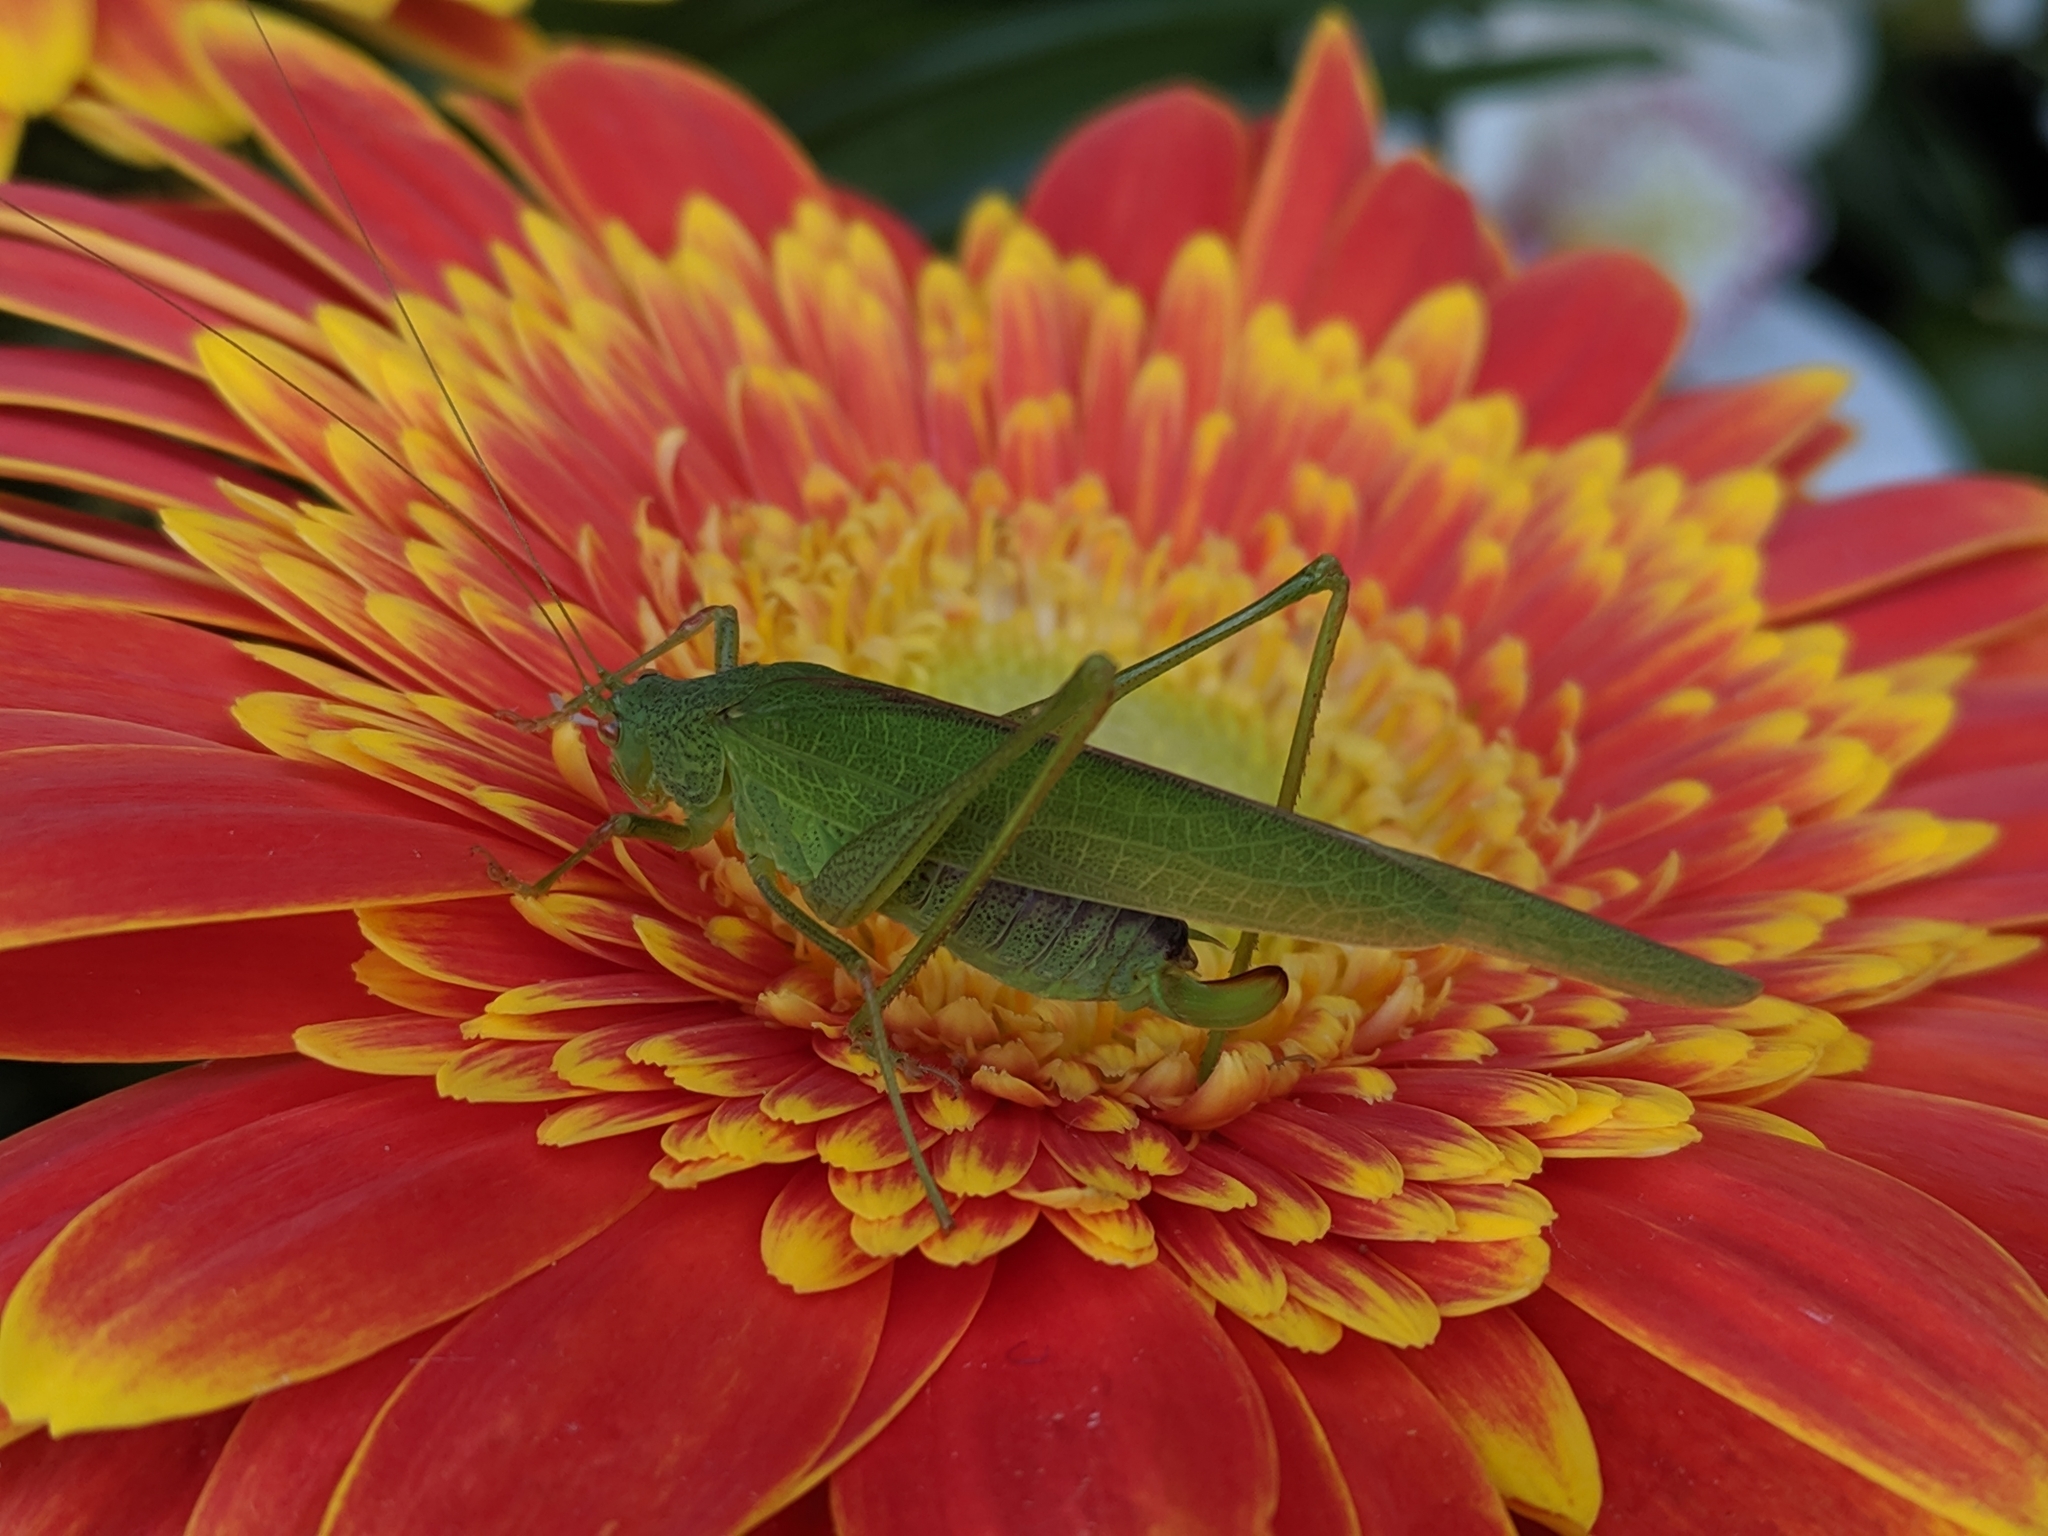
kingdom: Animalia
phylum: Arthropoda
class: Insecta
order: Orthoptera
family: Tettigoniidae
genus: Phaneroptera
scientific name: Phaneroptera nana
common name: Southern sickle bush-cricket
